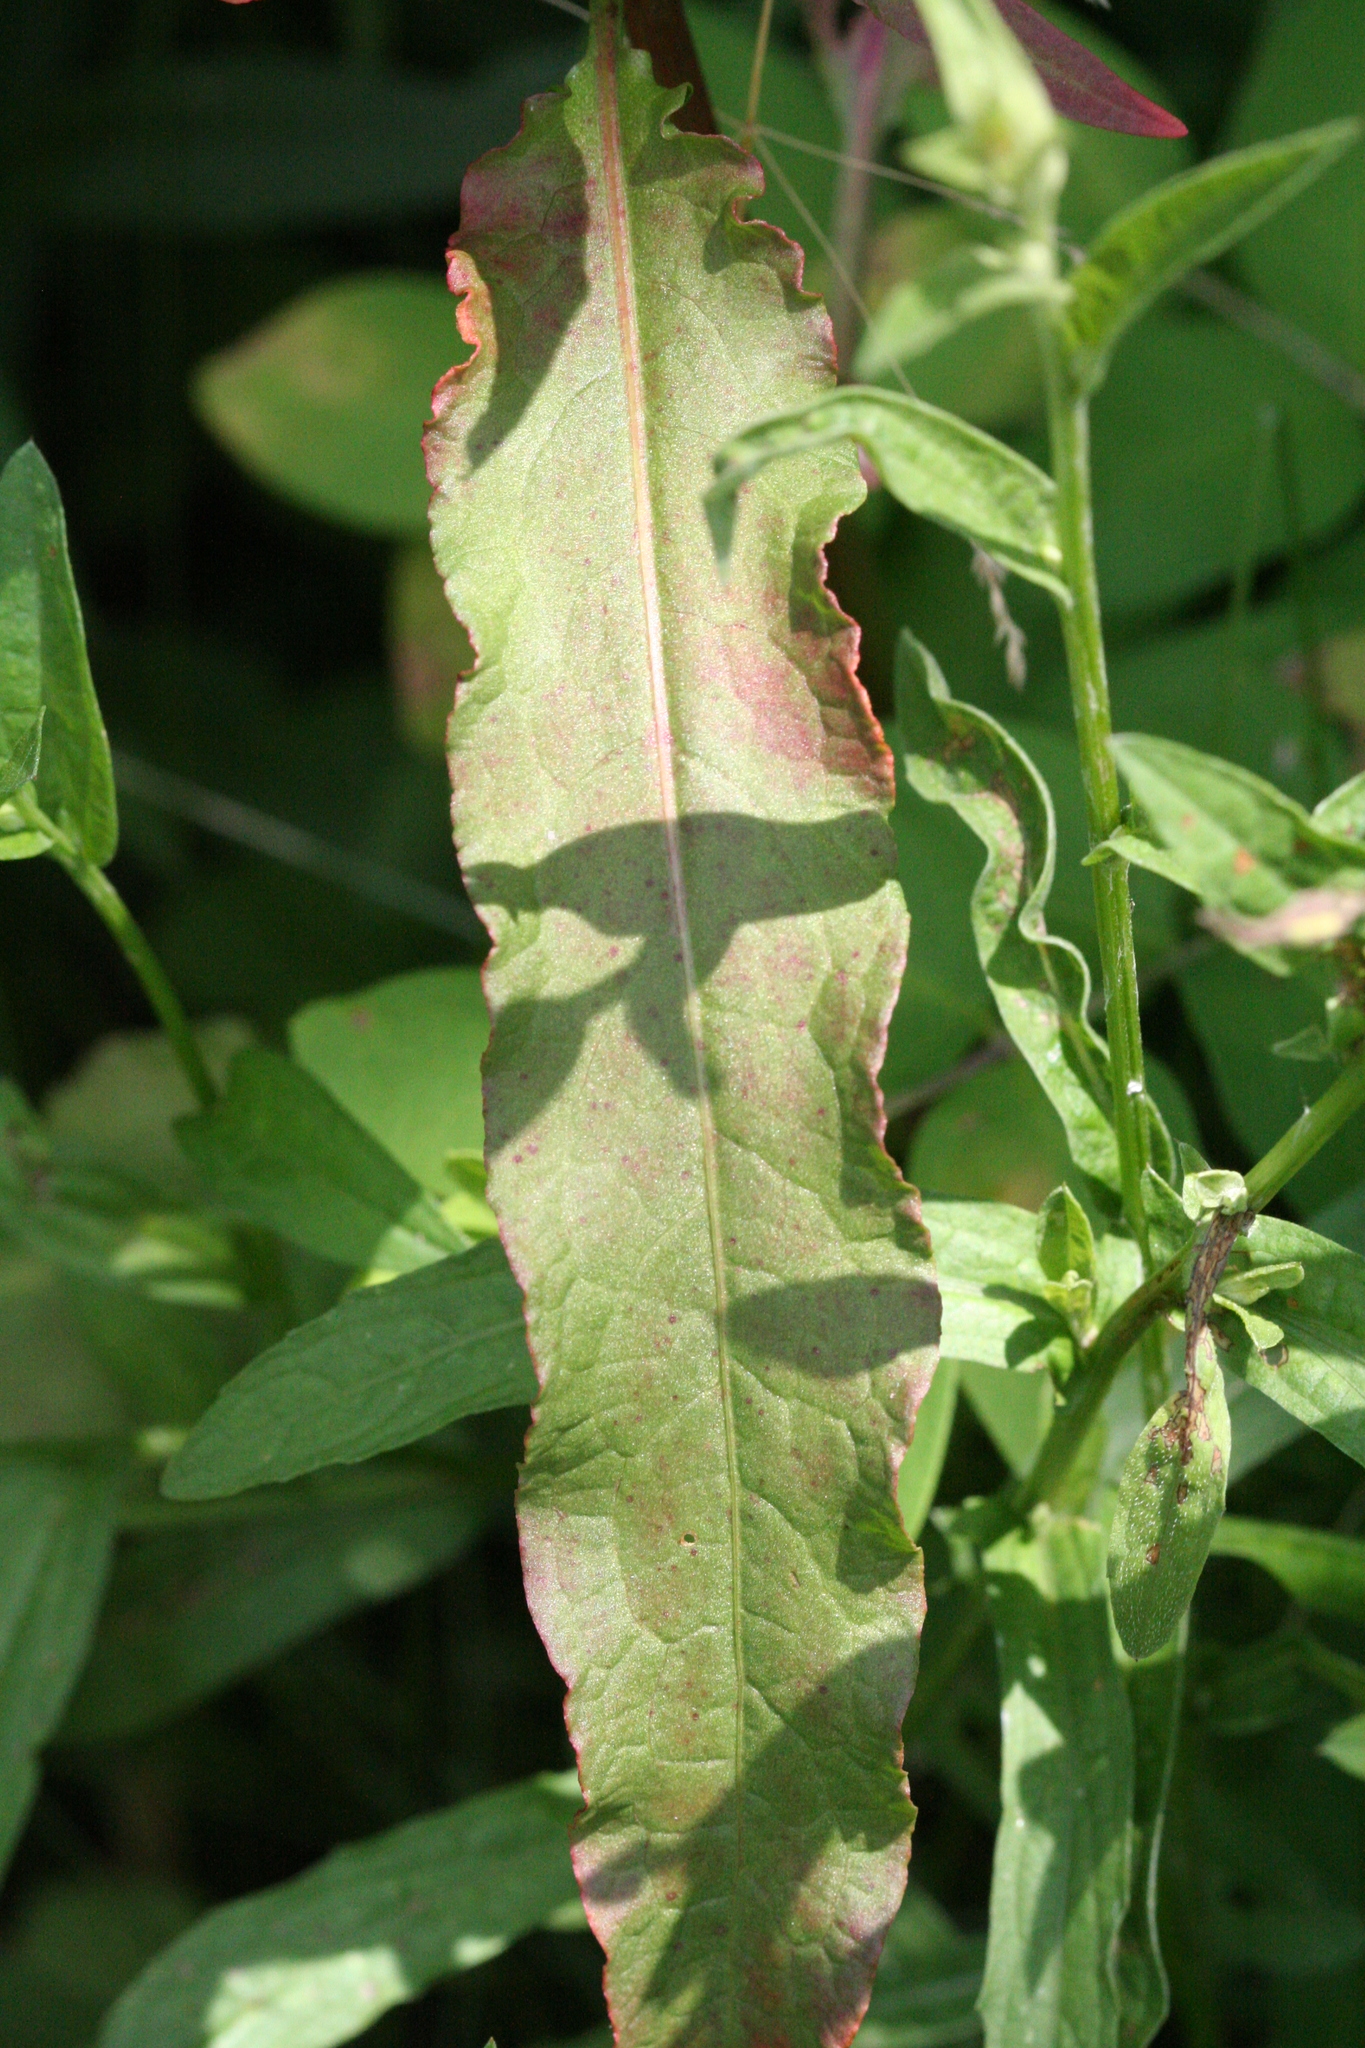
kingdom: Plantae
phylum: Tracheophyta
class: Magnoliopsida
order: Caryophyllales
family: Polygonaceae
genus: Rumex
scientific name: Rumex crispus
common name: Curled dock
